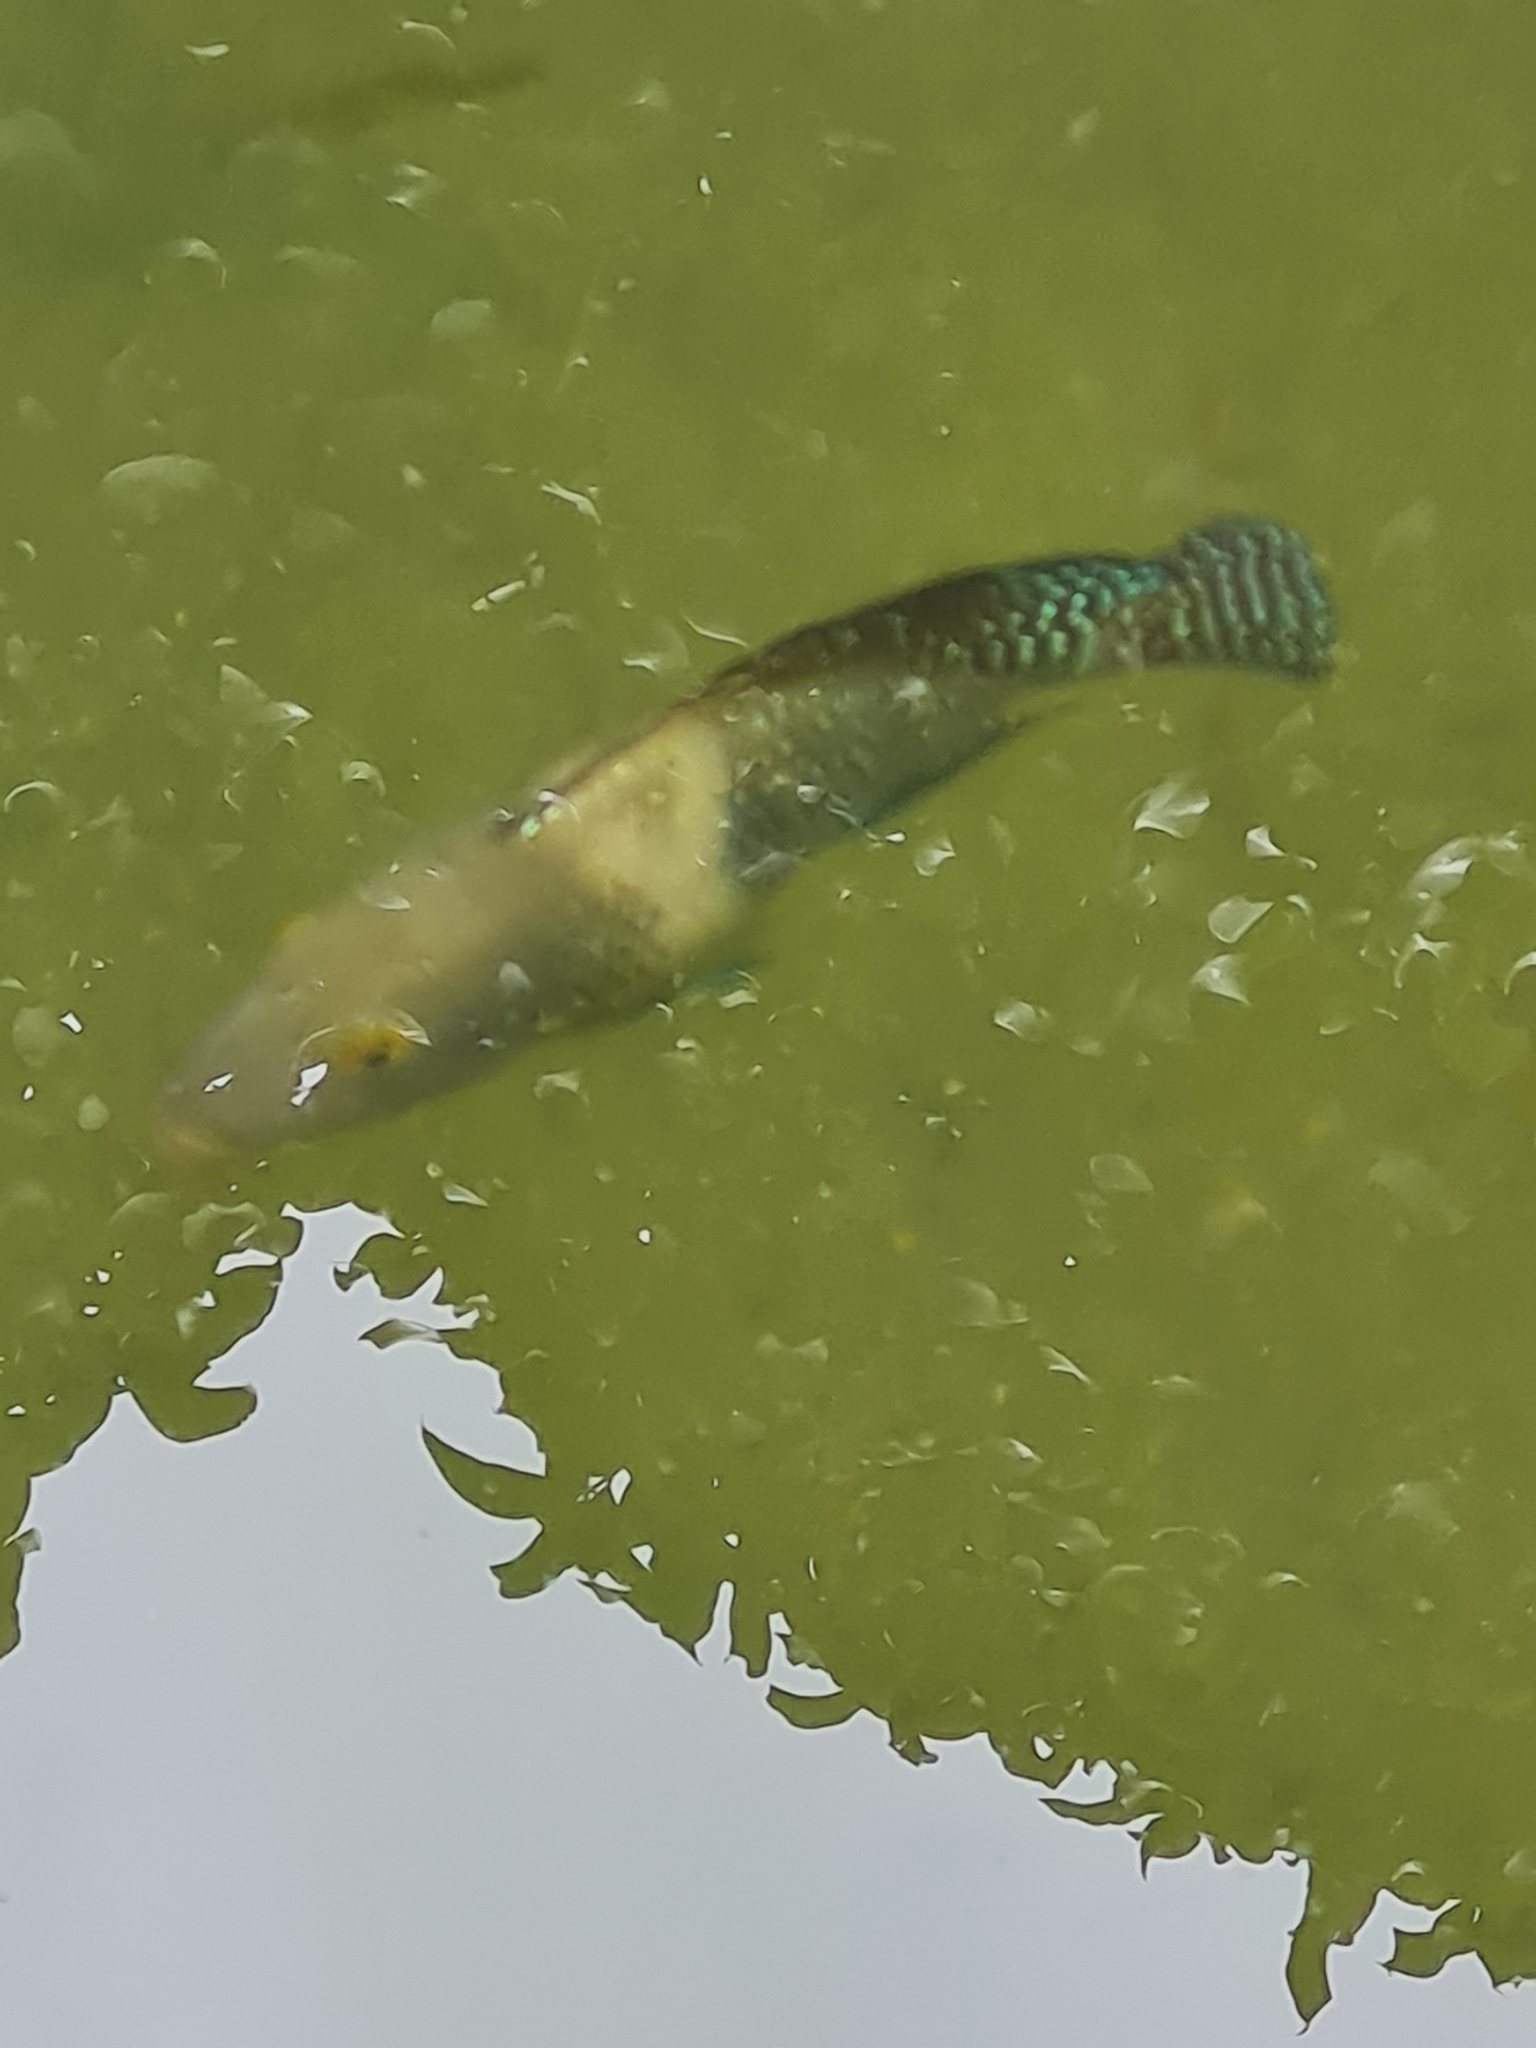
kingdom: Animalia
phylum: Chordata
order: Perciformes
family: Cichlidae
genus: Geophagus
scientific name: Geophagus brasiliensis
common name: Braziliensis
